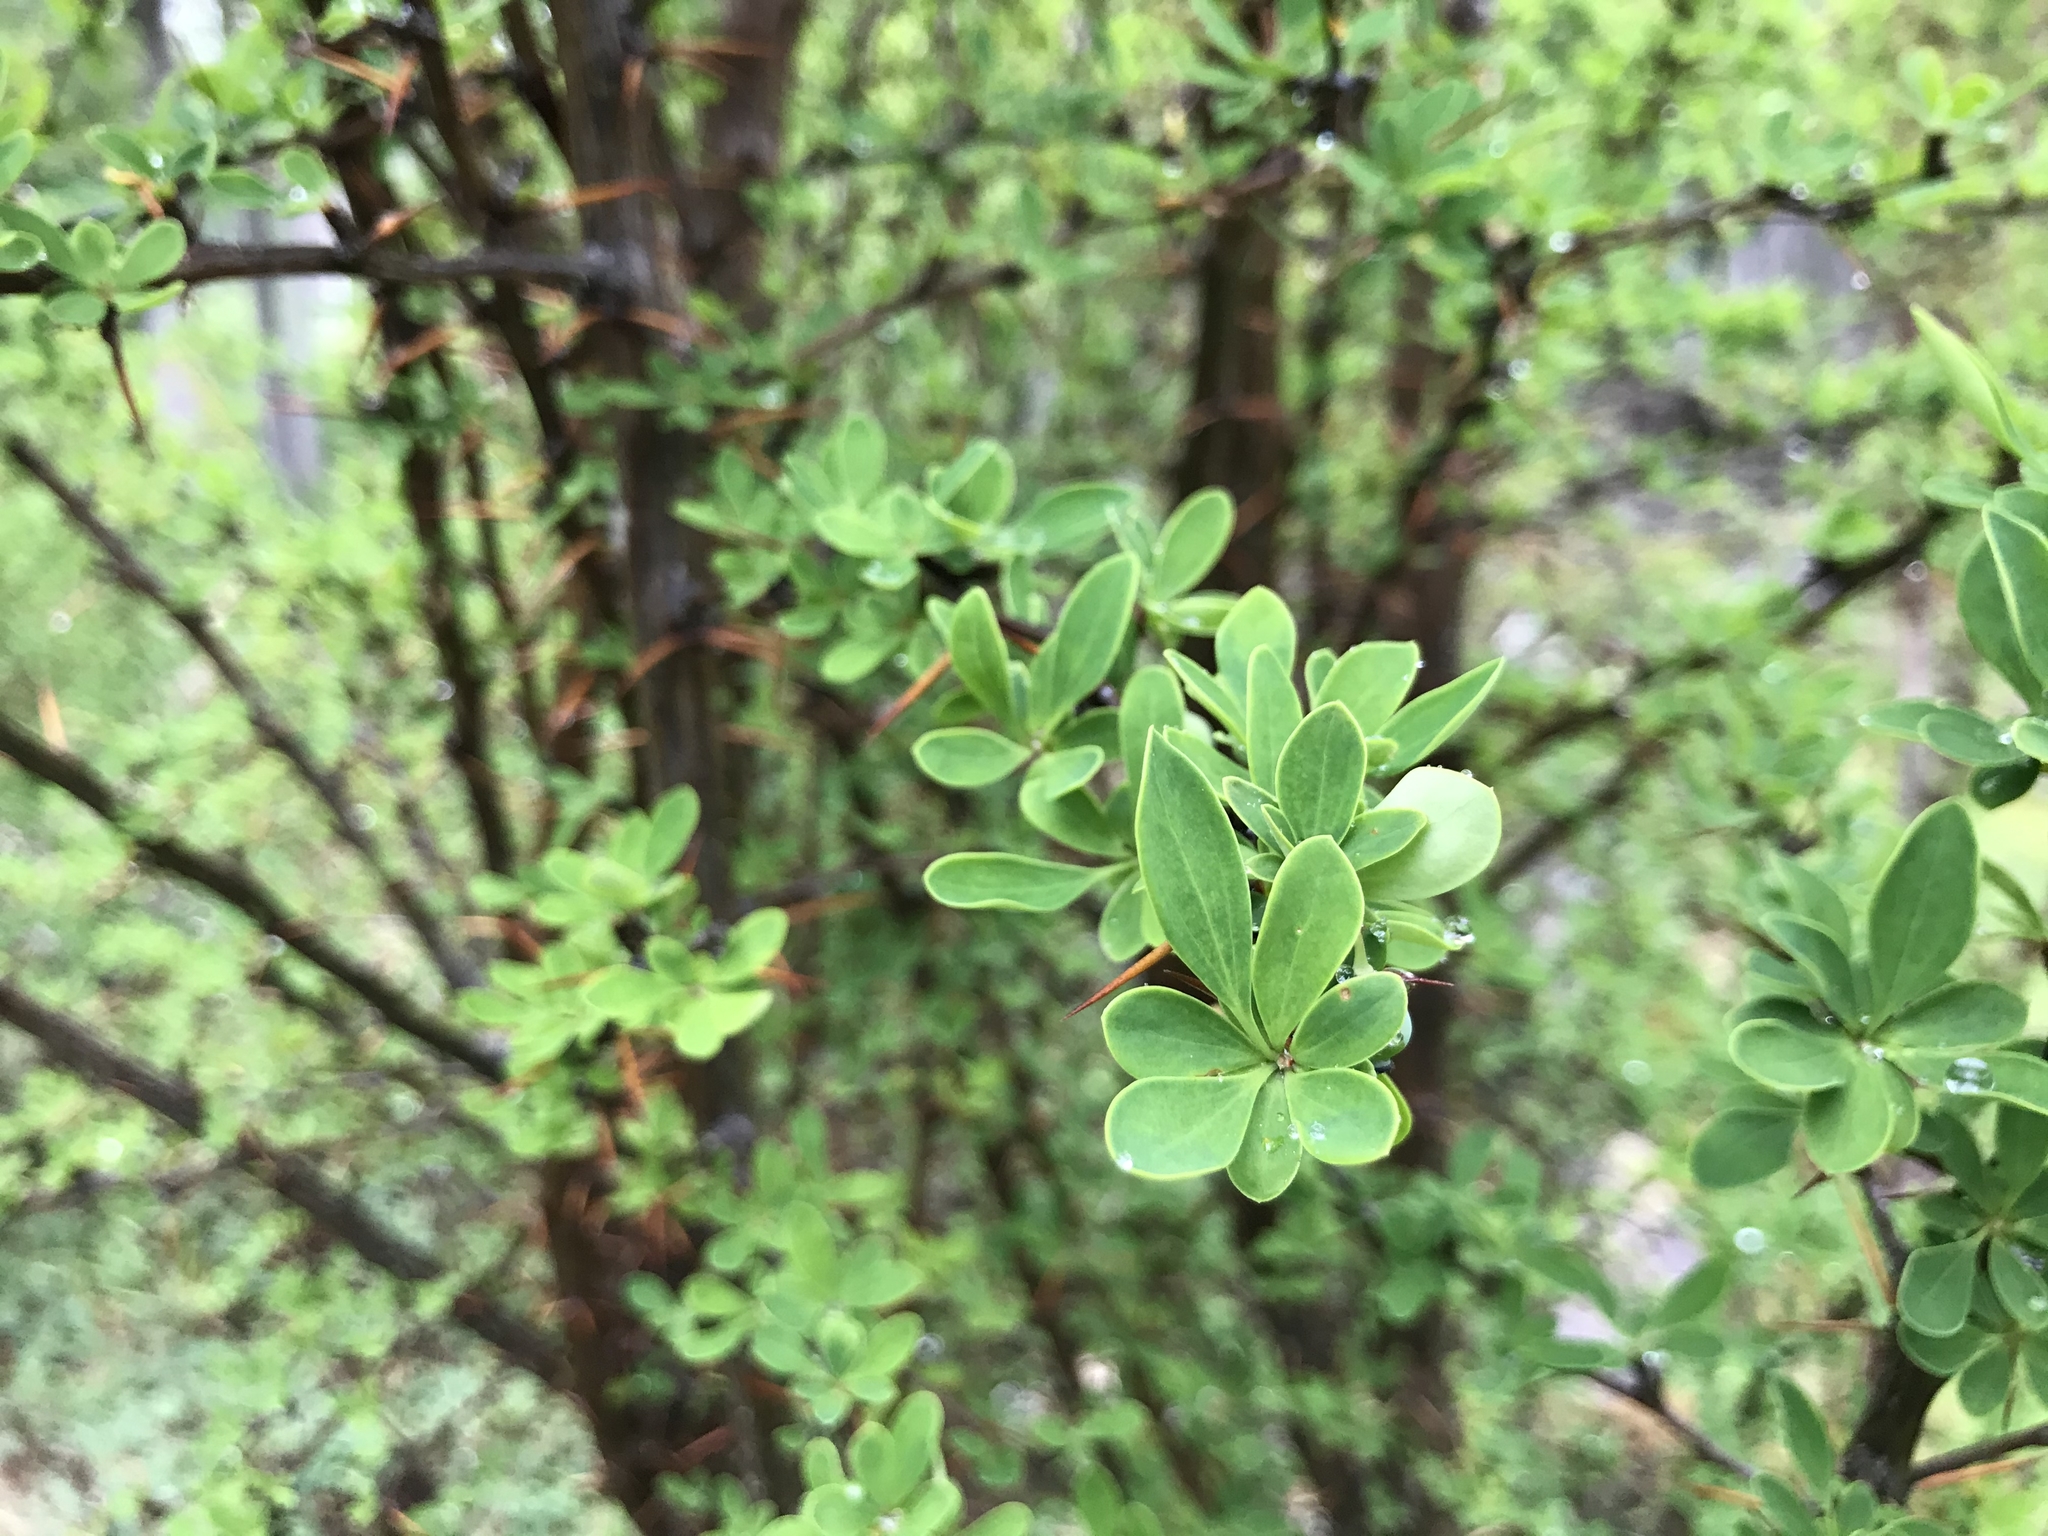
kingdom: Plantae
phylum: Tracheophyta
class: Magnoliopsida
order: Ranunculales
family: Berberidaceae
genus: Berberis
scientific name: Berberis microphylla
